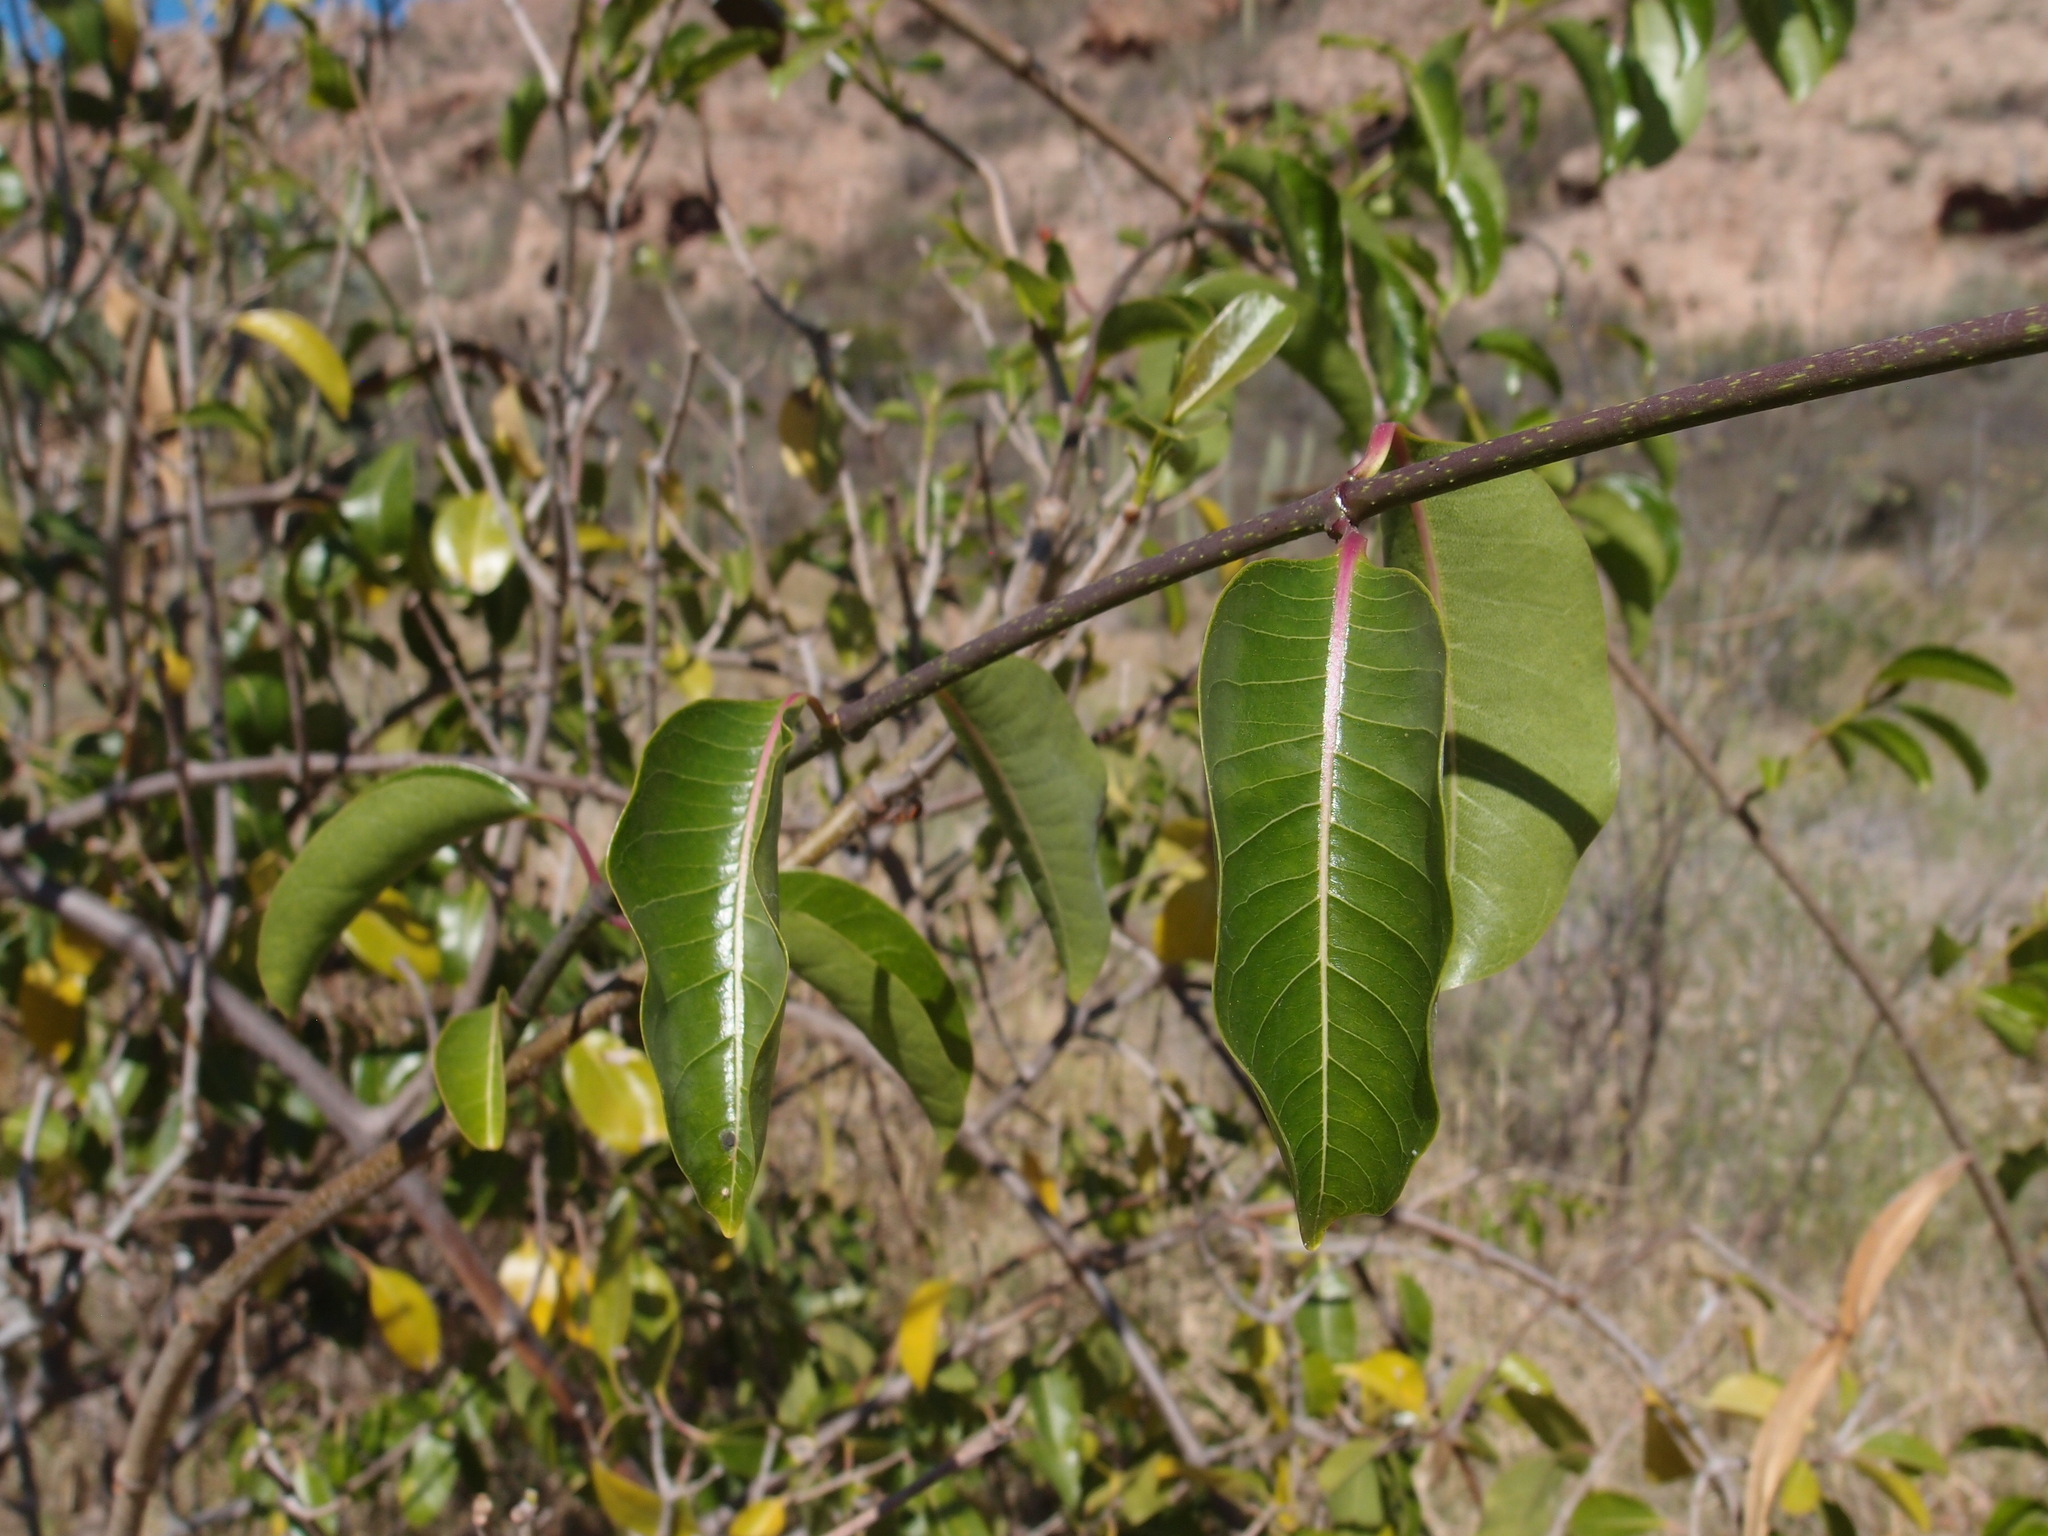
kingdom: Plantae
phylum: Tracheophyta
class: Magnoliopsida
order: Gentianales
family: Apocynaceae
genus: Cryptostegia
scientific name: Cryptostegia grandiflora
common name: Palay rubbervine
